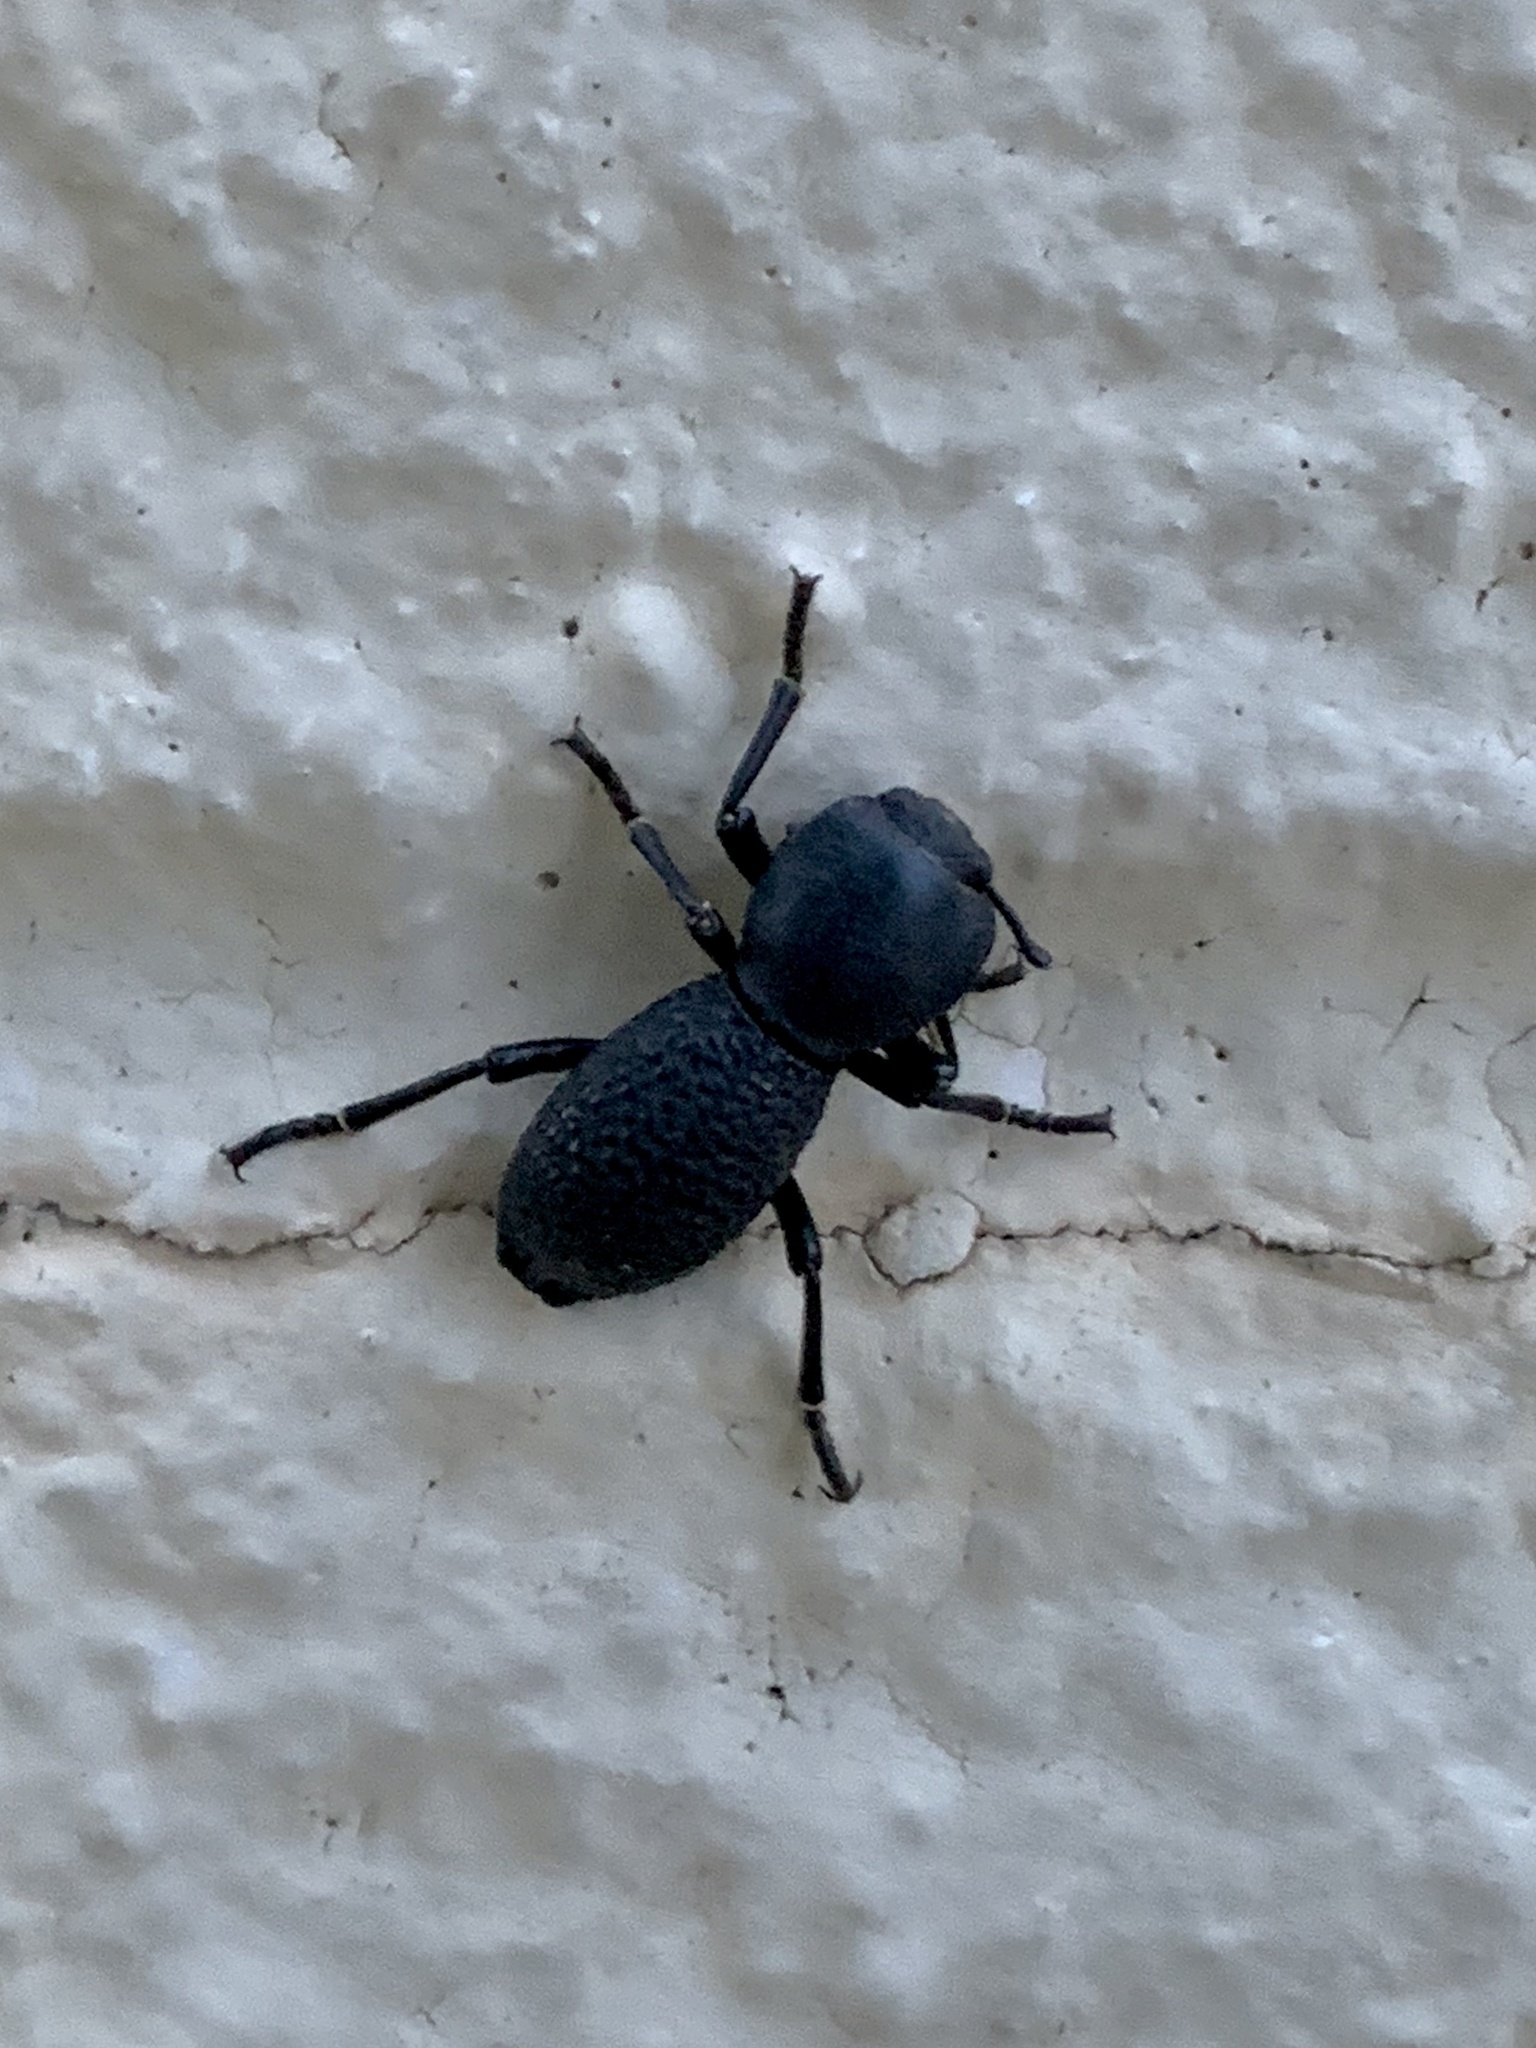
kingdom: Animalia
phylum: Arthropoda
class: Insecta
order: Coleoptera
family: Zopheridae
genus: Zopherus
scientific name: Zopherus concolor
